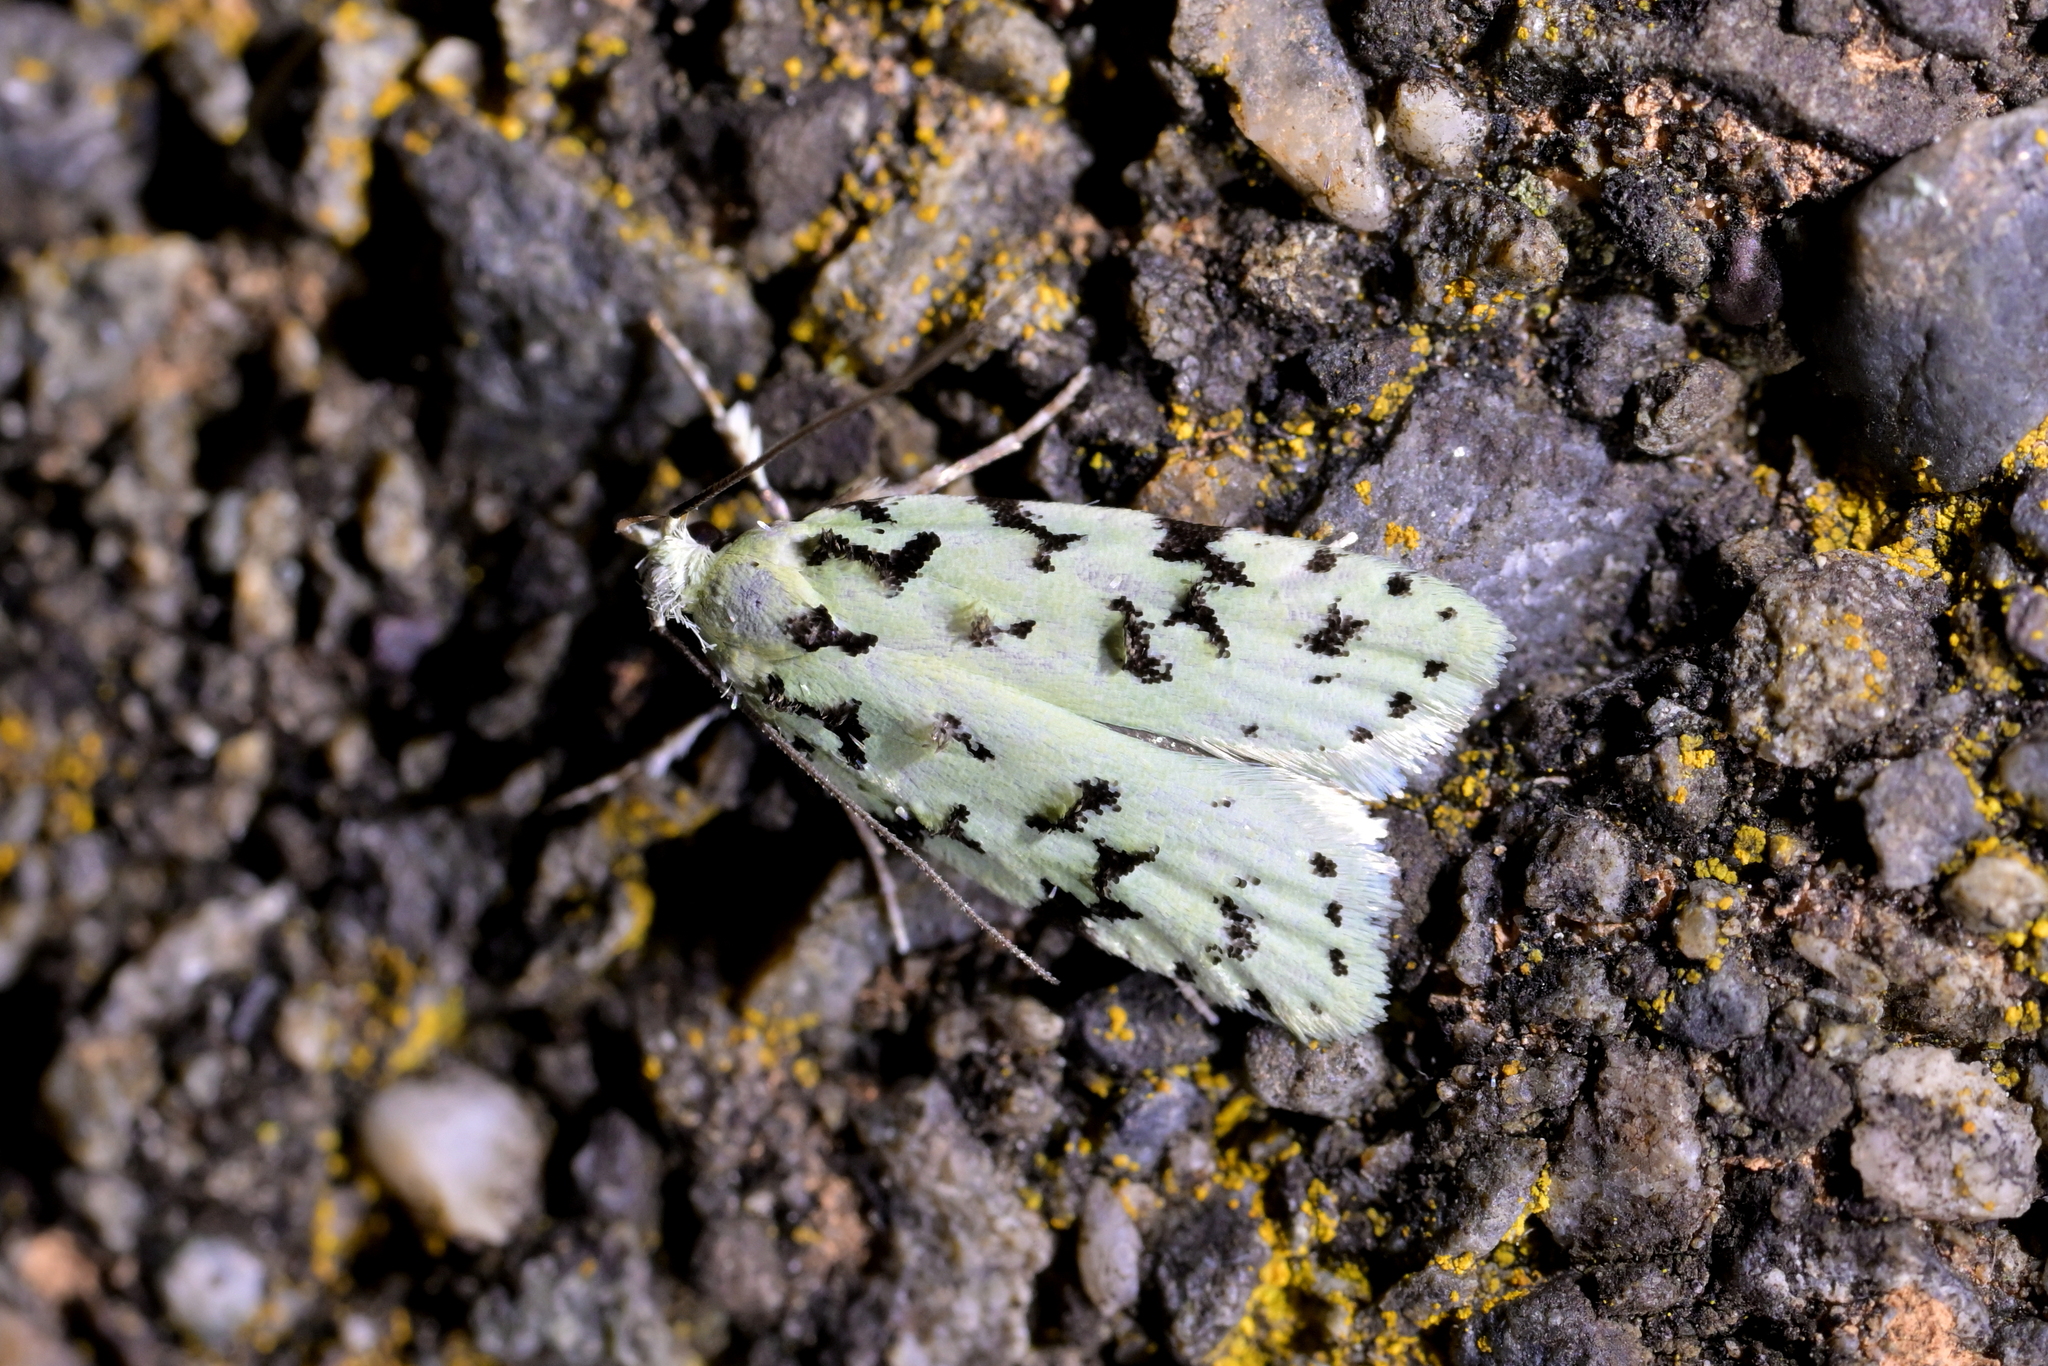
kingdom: Animalia
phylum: Arthropoda
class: Insecta
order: Lepidoptera
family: Oecophoridae
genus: Izatha
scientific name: Izatha peroneanella
